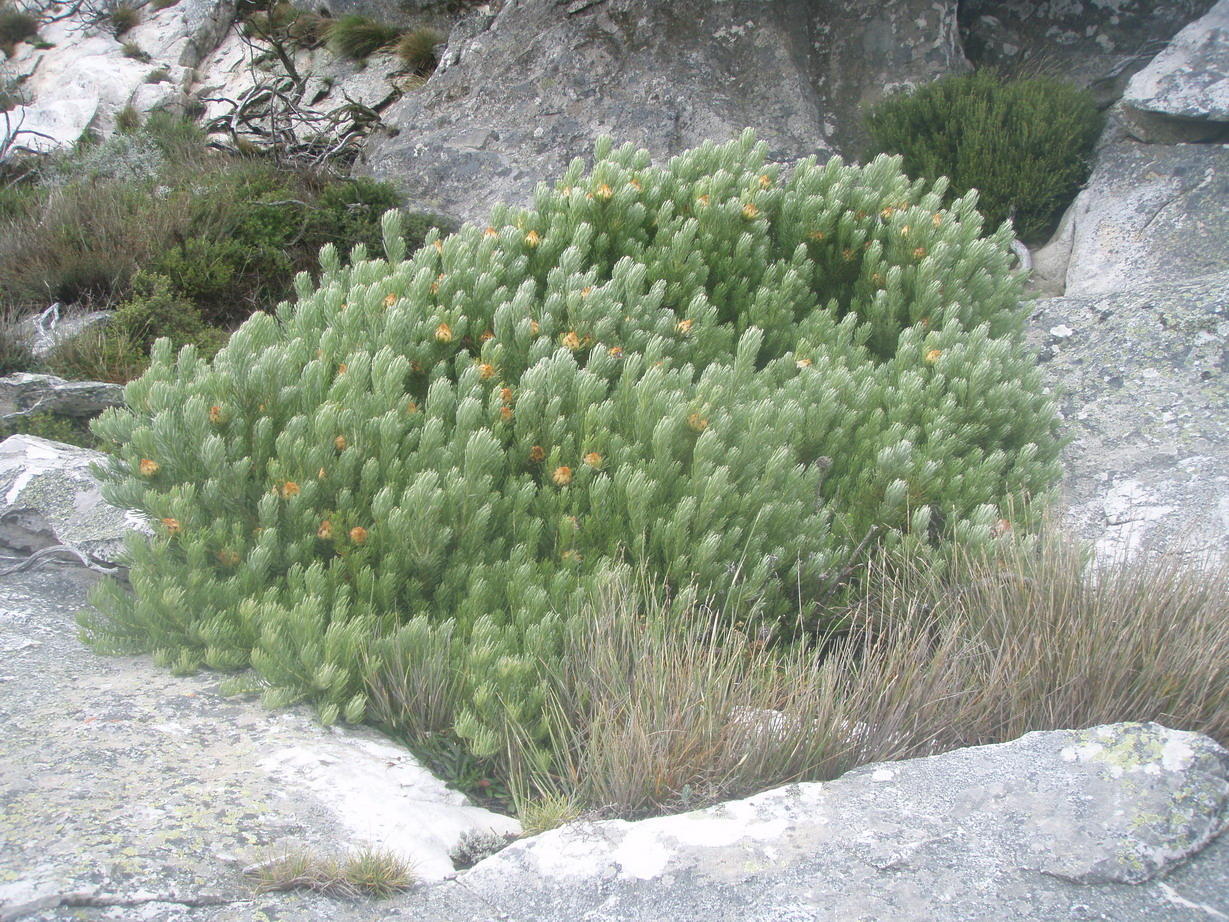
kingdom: Plantae
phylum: Tracheophyta
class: Magnoliopsida
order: Proteales
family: Proteaceae
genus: Leucadendron
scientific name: Leucadendron dregei
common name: Summit conebush
